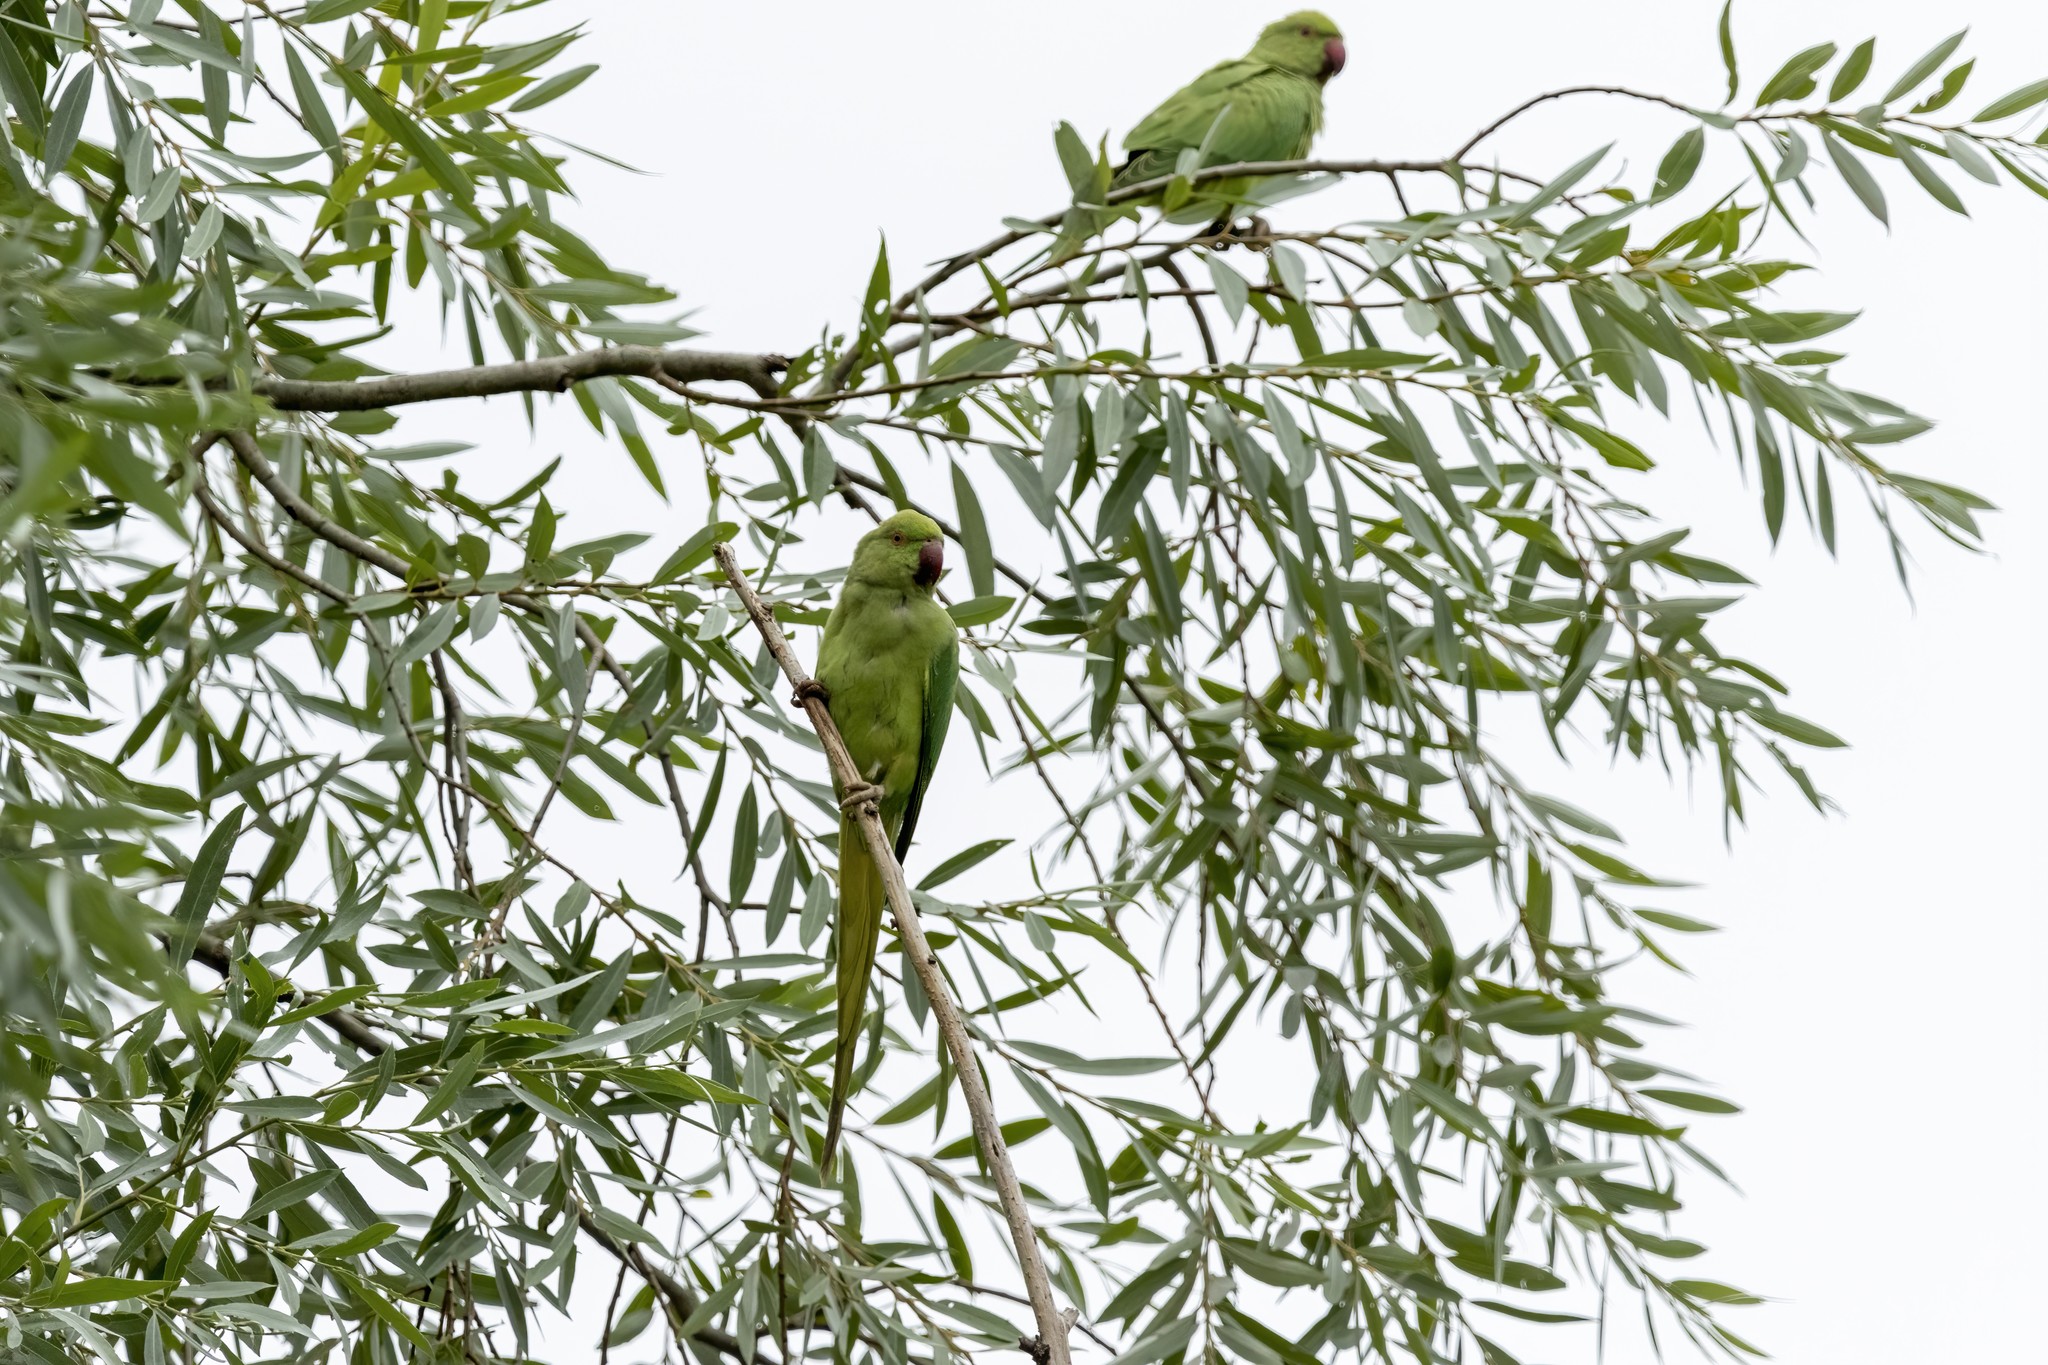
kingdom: Animalia
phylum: Chordata
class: Aves
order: Psittaciformes
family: Psittacidae
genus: Psittacula
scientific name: Psittacula krameri
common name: Rose-ringed parakeet
